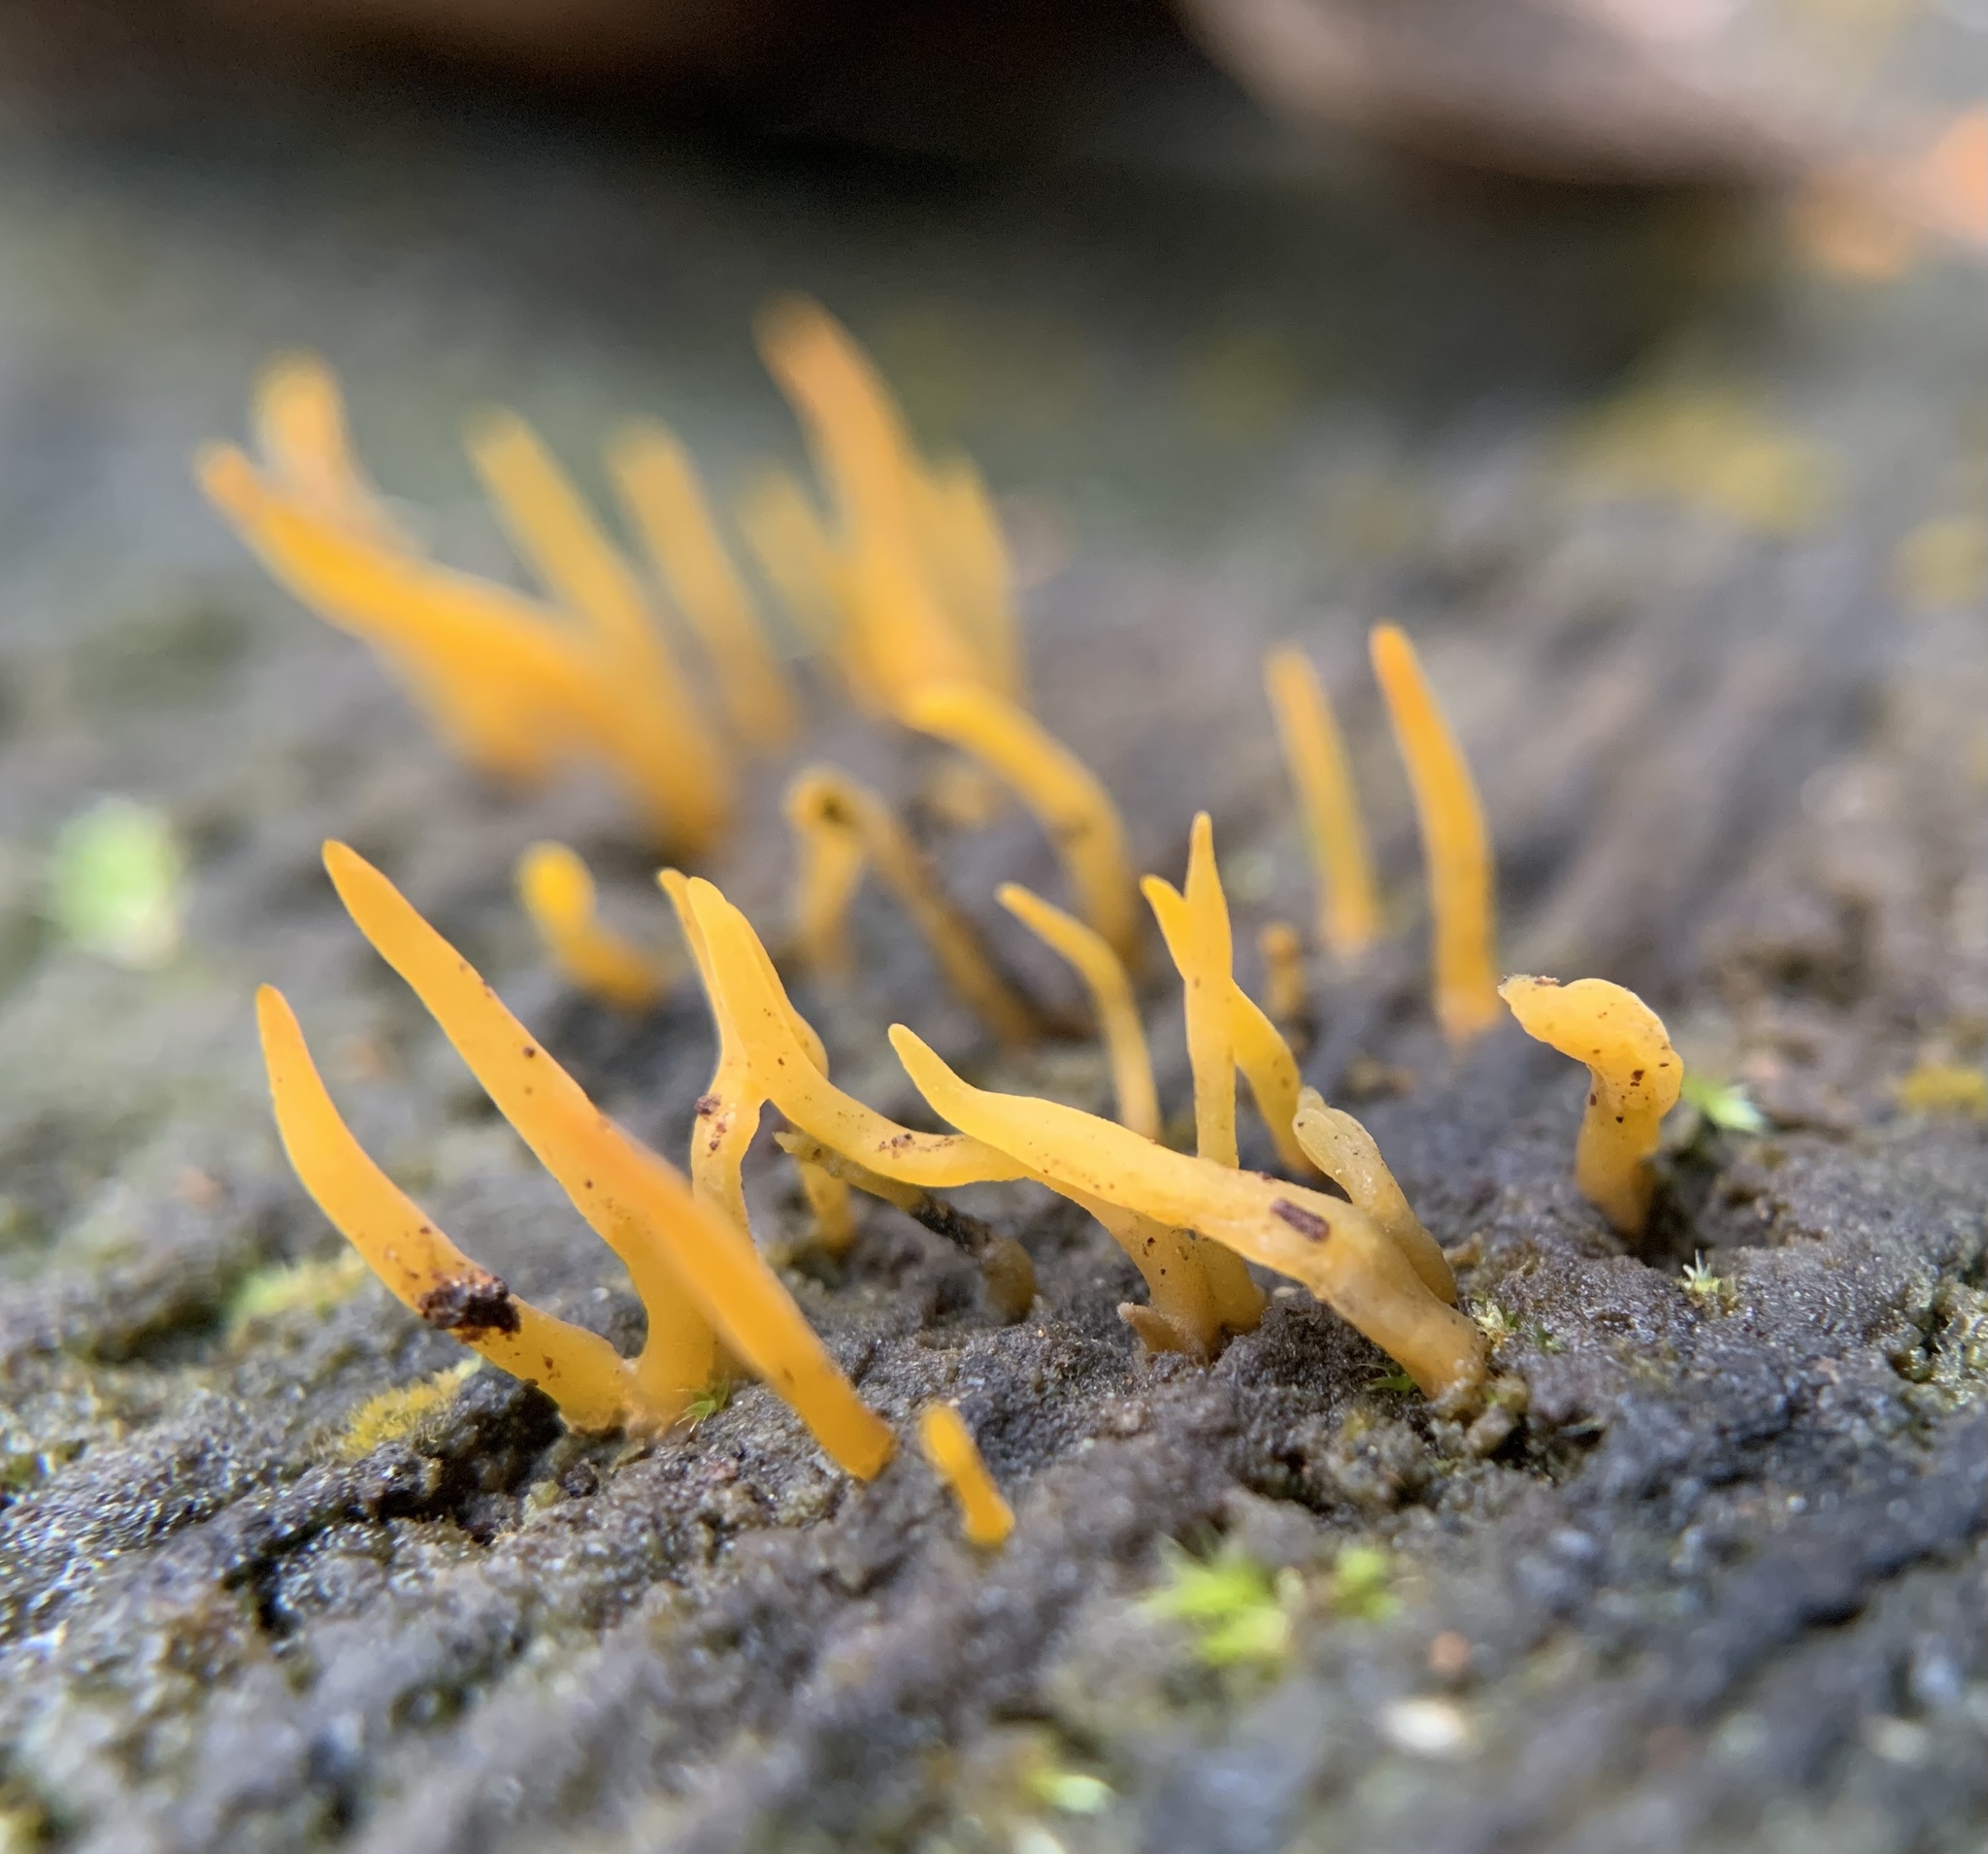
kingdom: Fungi
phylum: Basidiomycota
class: Dacrymycetes
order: Dacrymycetales
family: Dacrymycetaceae
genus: Calocera
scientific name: Calocera cornea
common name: Small stagshorn
